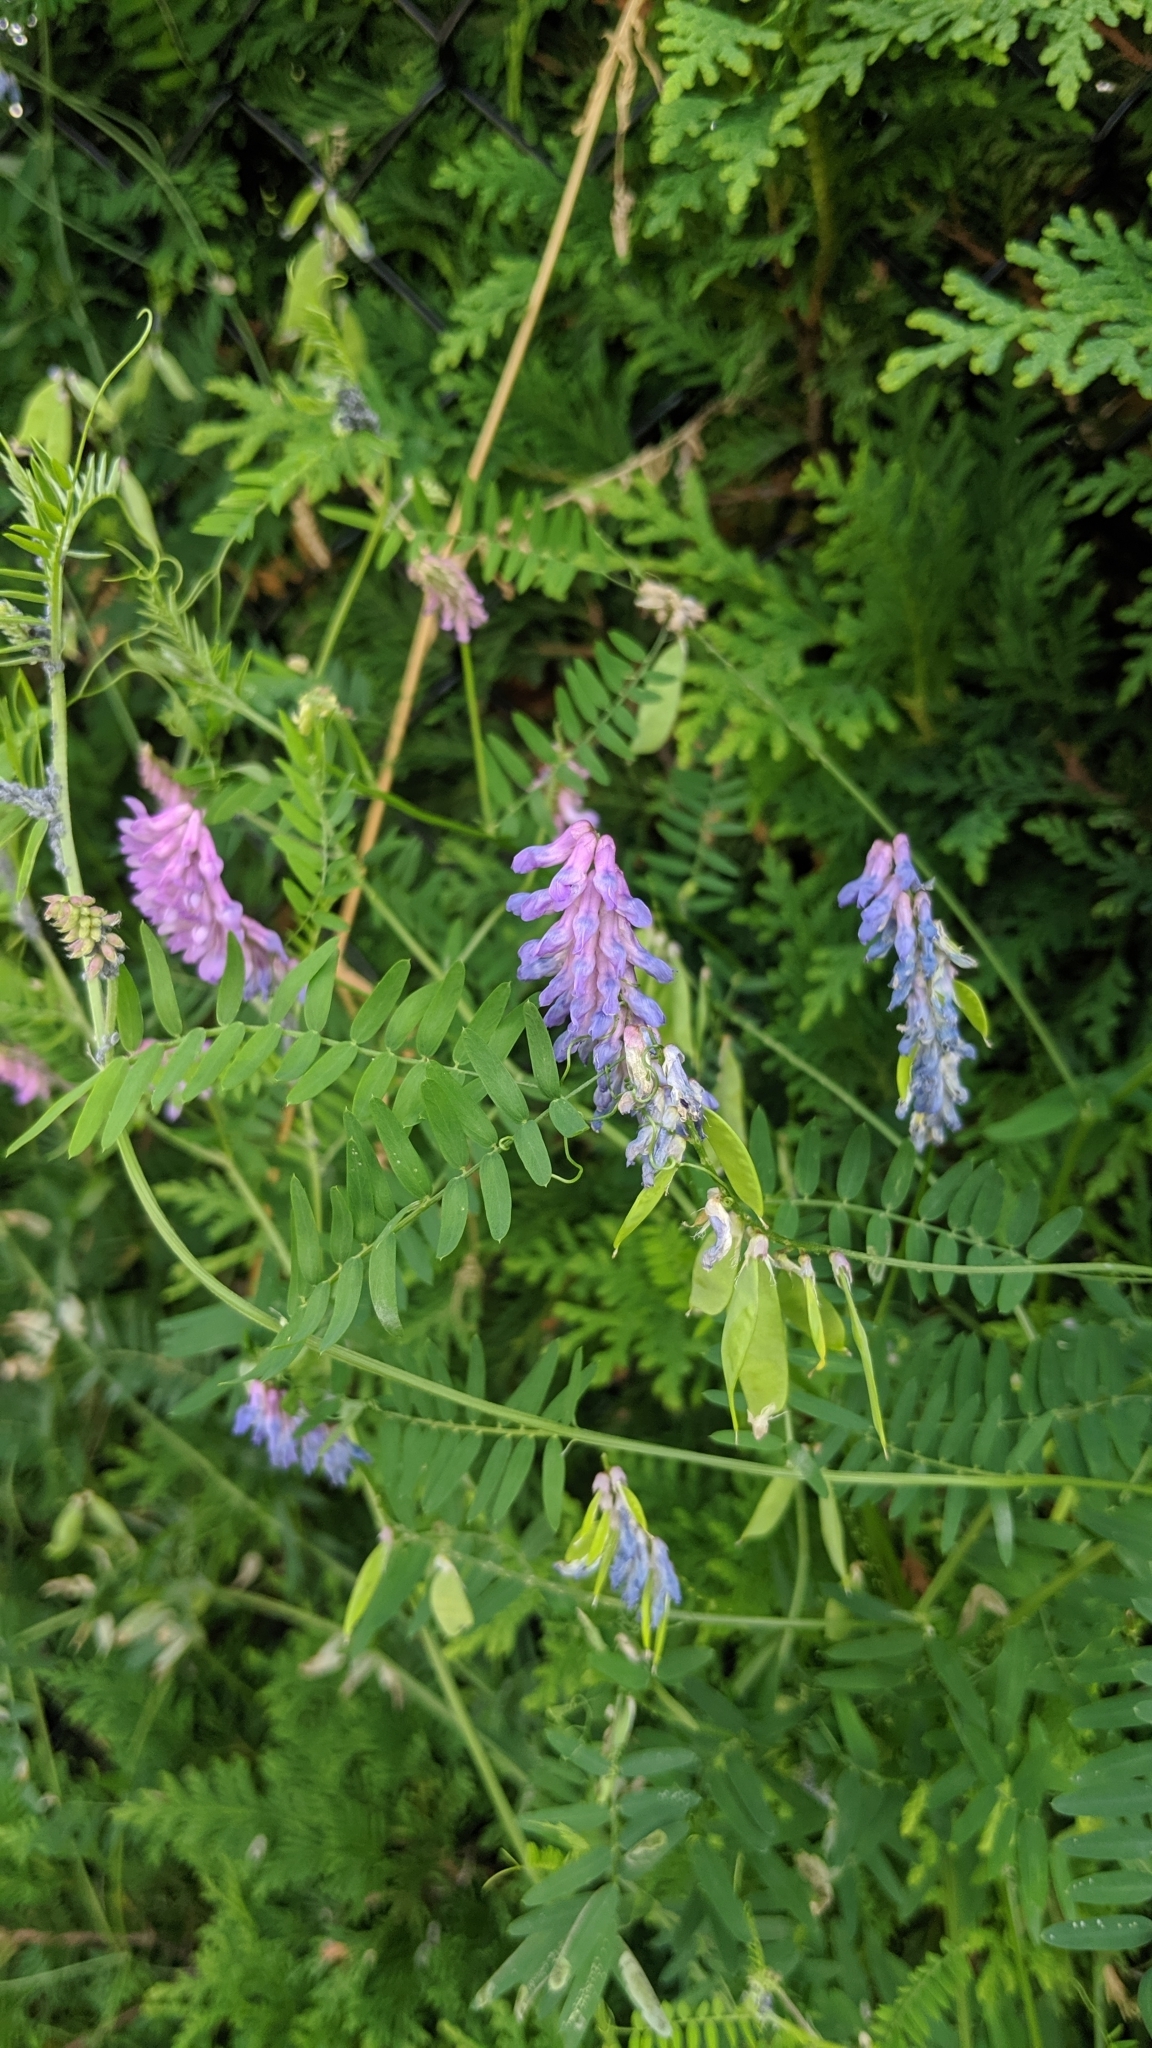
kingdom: Plantae
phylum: Tracheophyta
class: Magnoliopsida
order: Fabales
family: Fabaceae
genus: Vicia
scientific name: Vicia cracca
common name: Bird vetch
